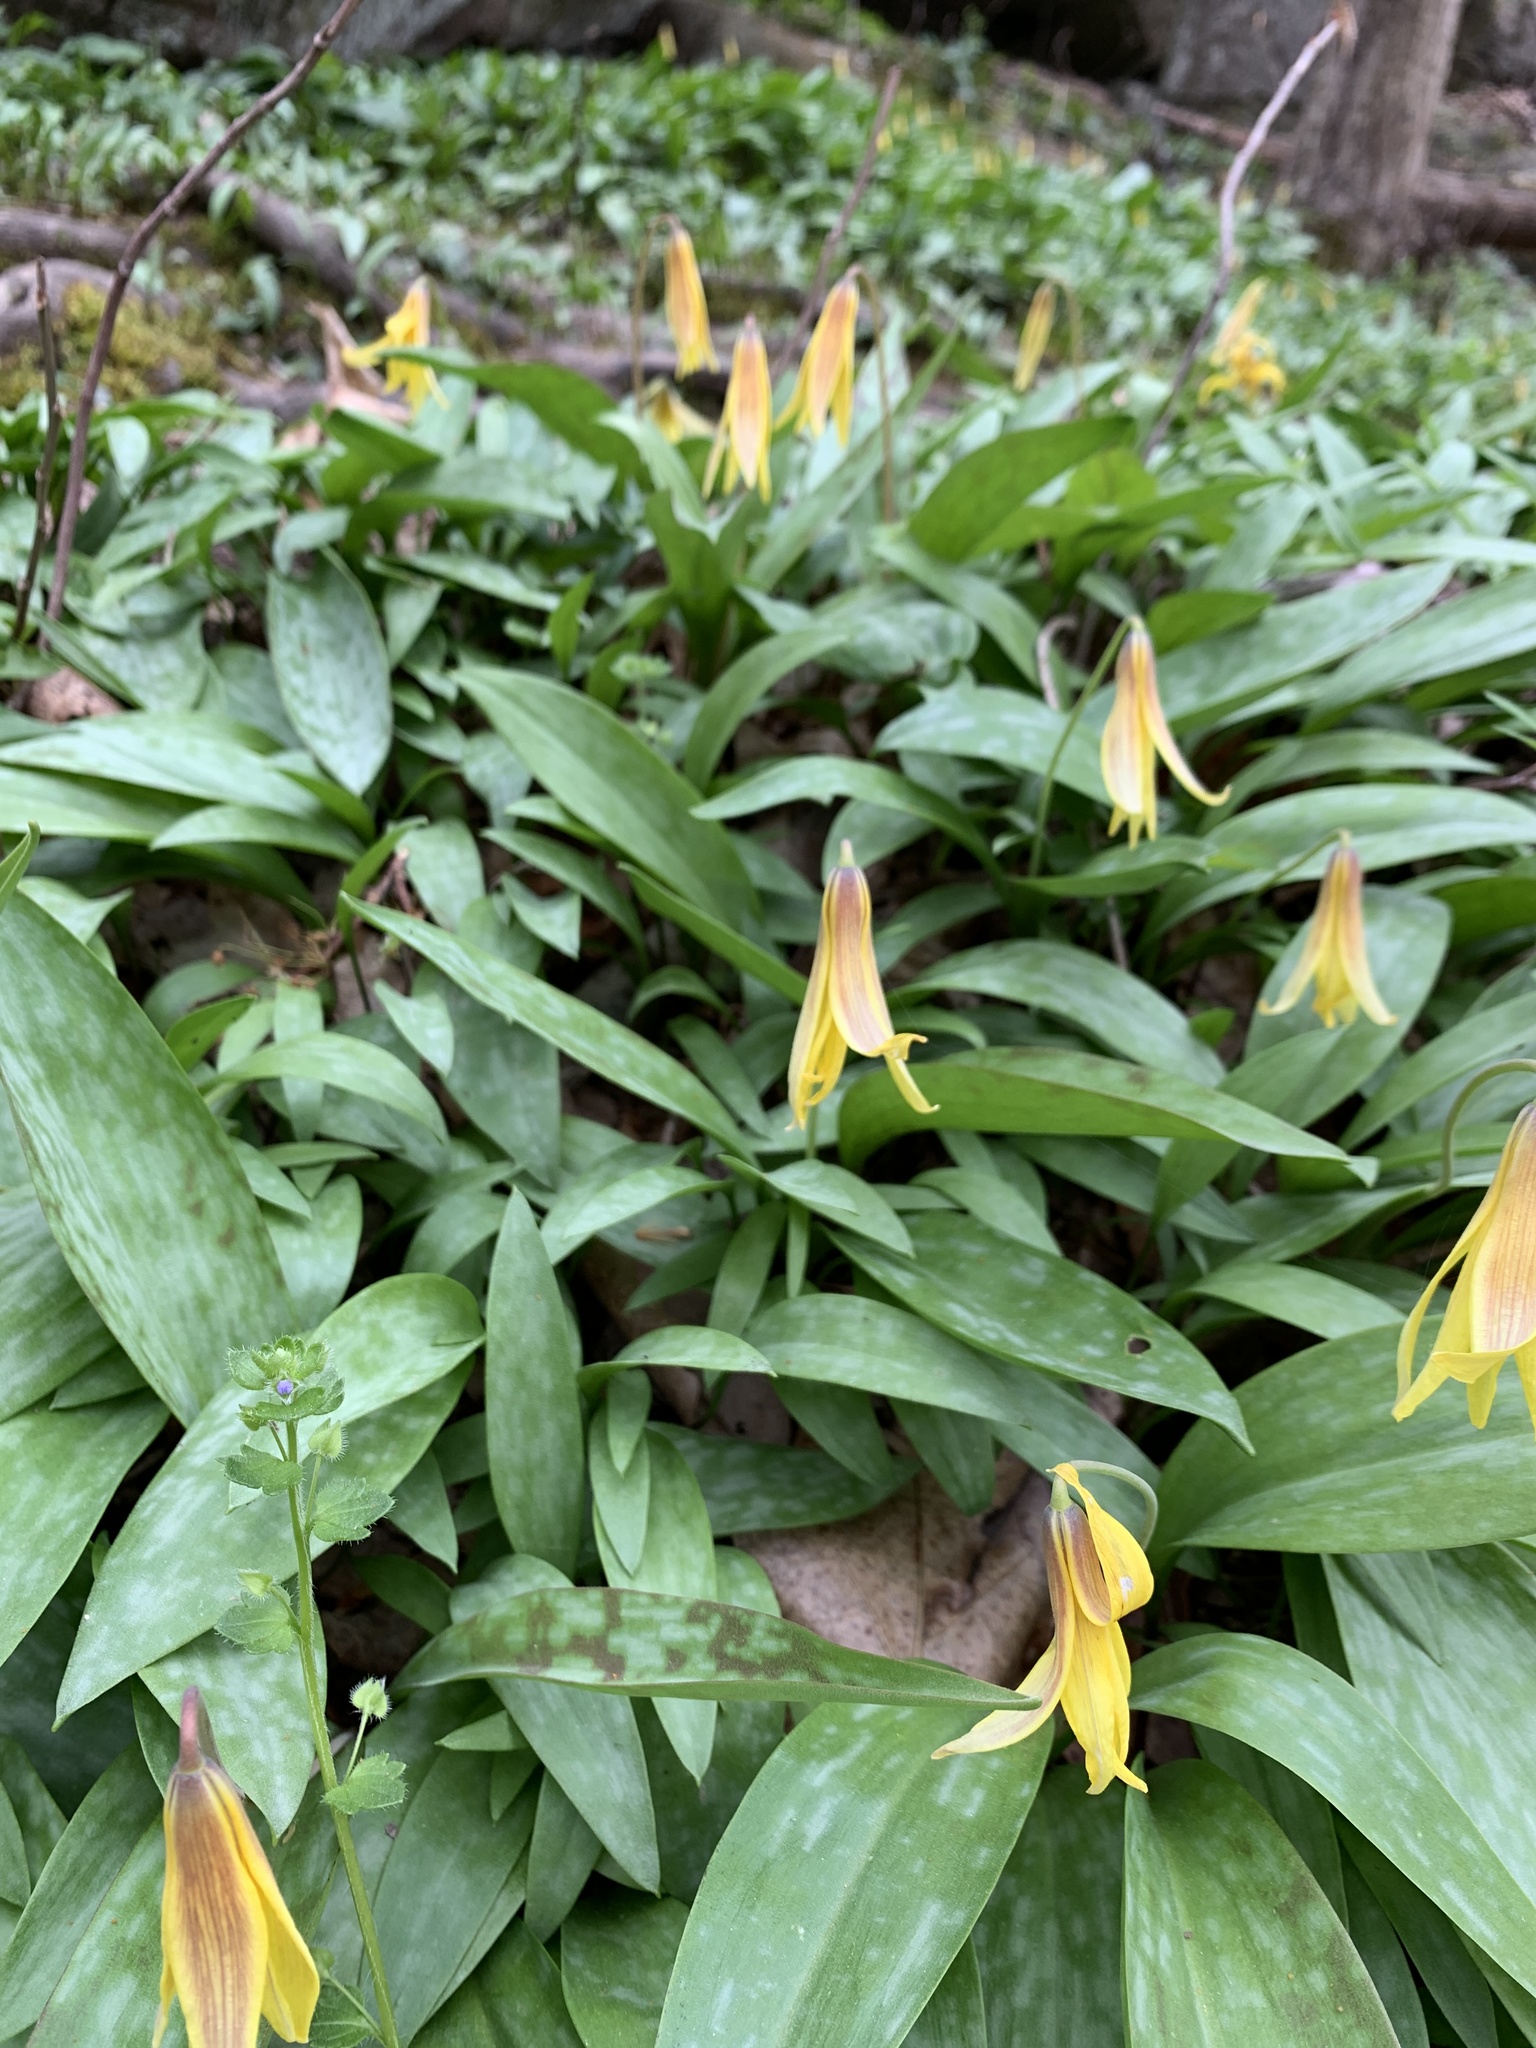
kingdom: Plantae
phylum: Tracheophyta
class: Liliopsida
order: Liliales
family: Liliaceae
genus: Erythronium
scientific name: Erythronium americanum
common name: Yellow adder's-tongue
